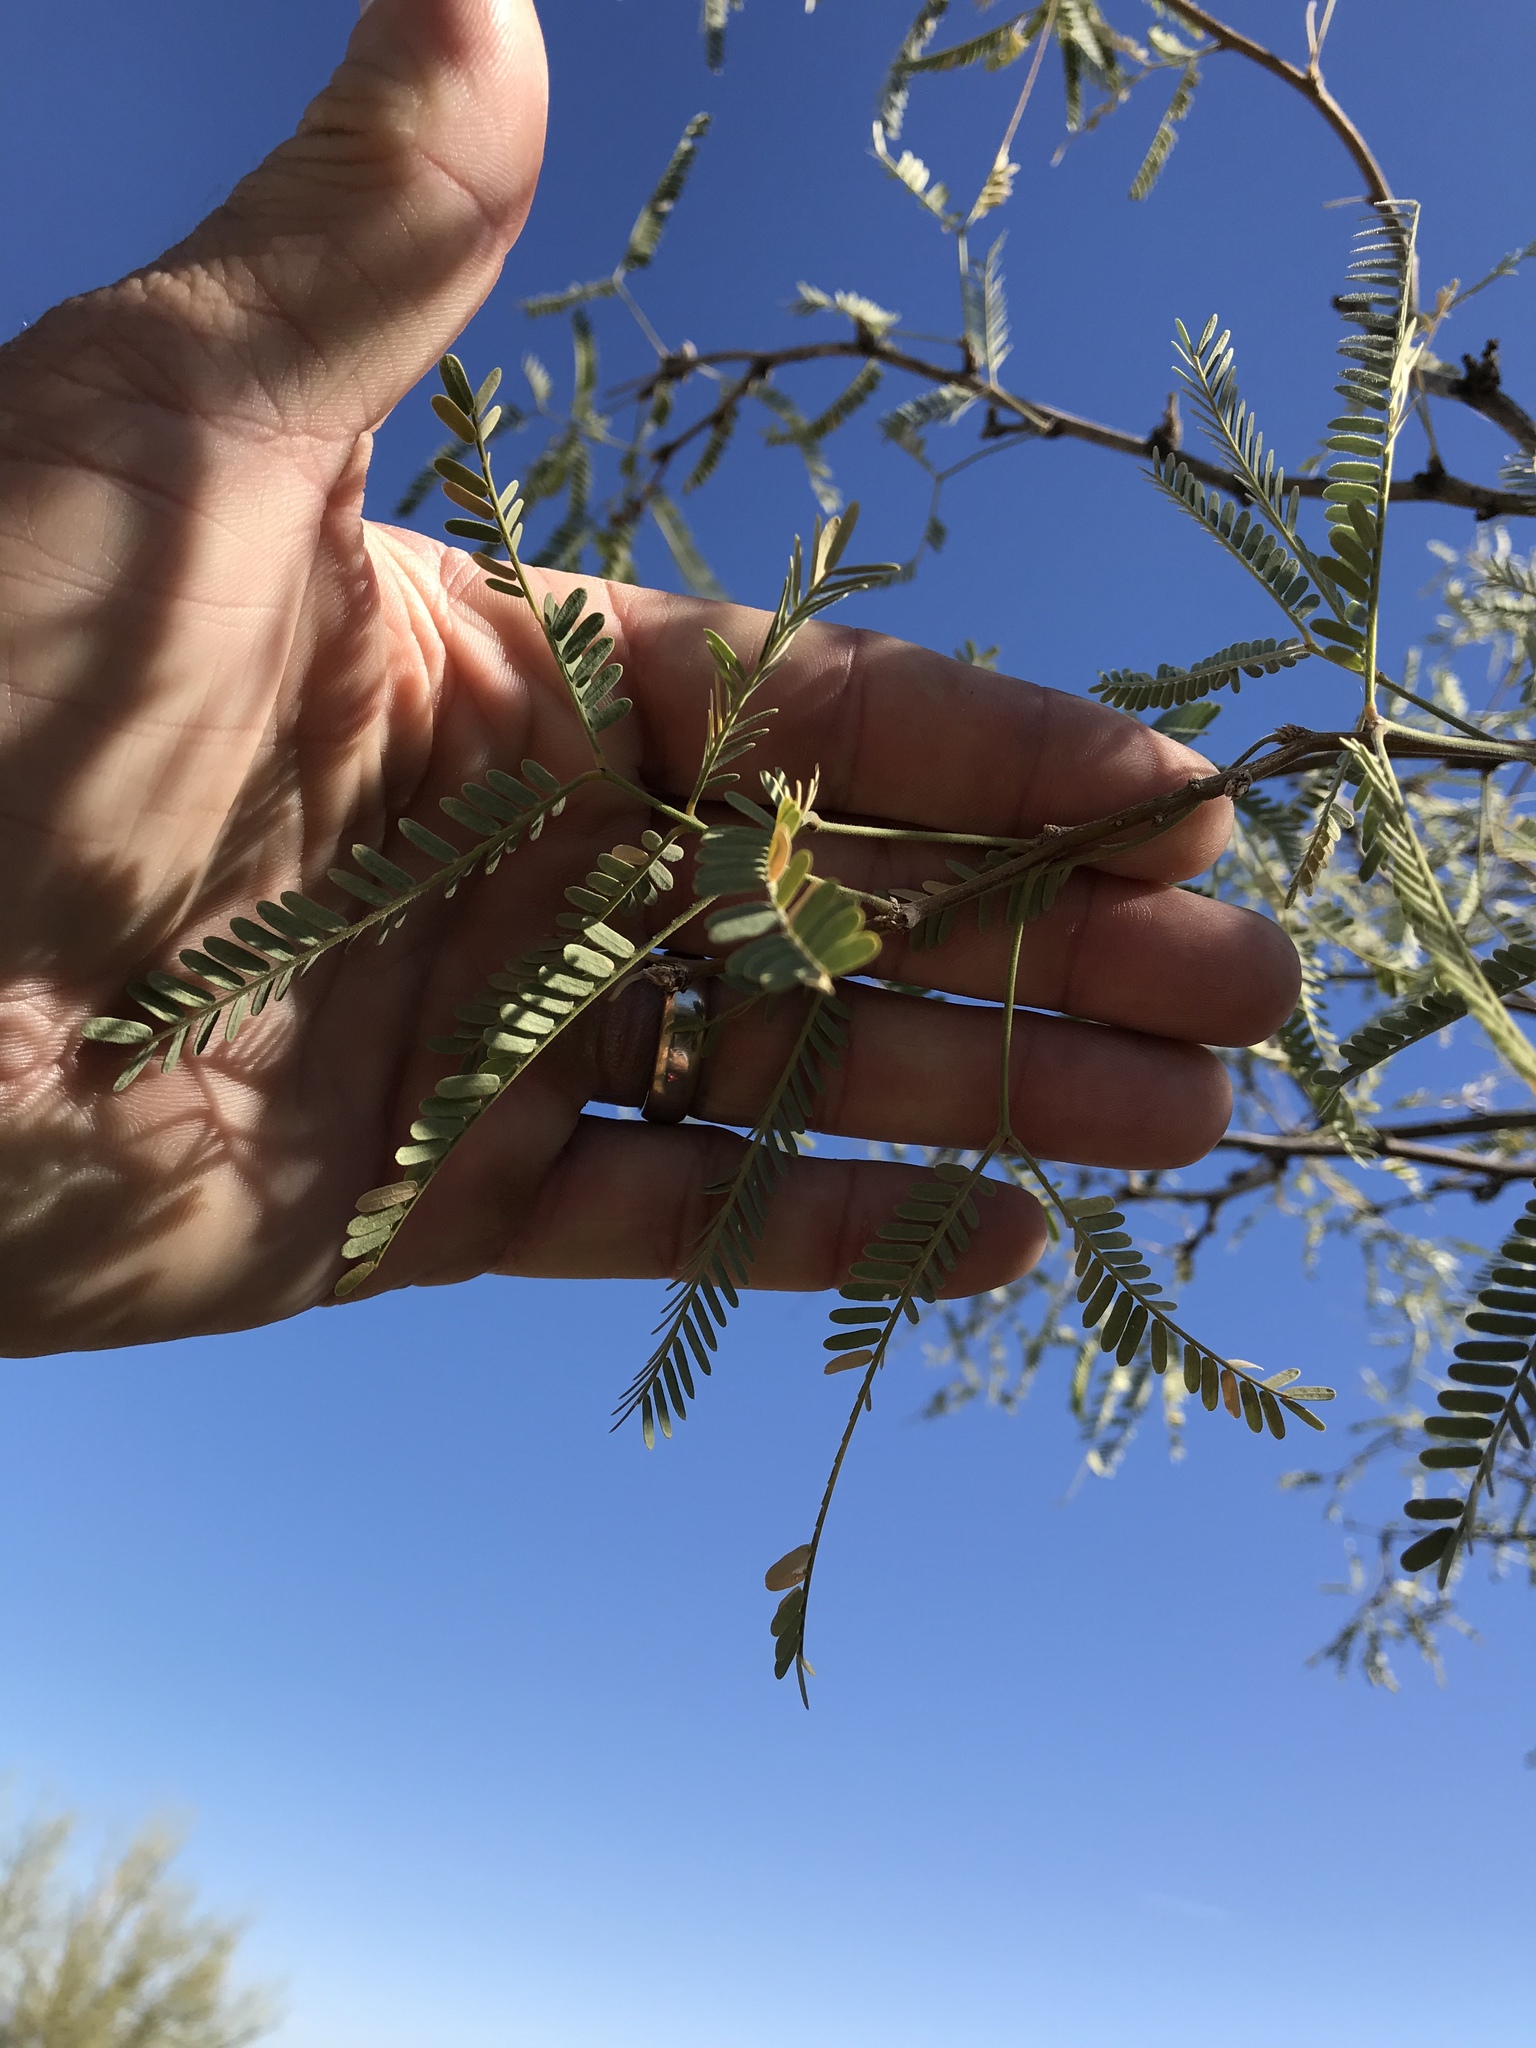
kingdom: Plantae
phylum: Tracheophyta
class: Magnoliopsida
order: Fabales
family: Fabaceae
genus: Prosopis
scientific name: Prosopis velutina
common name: Velvet mesquite
